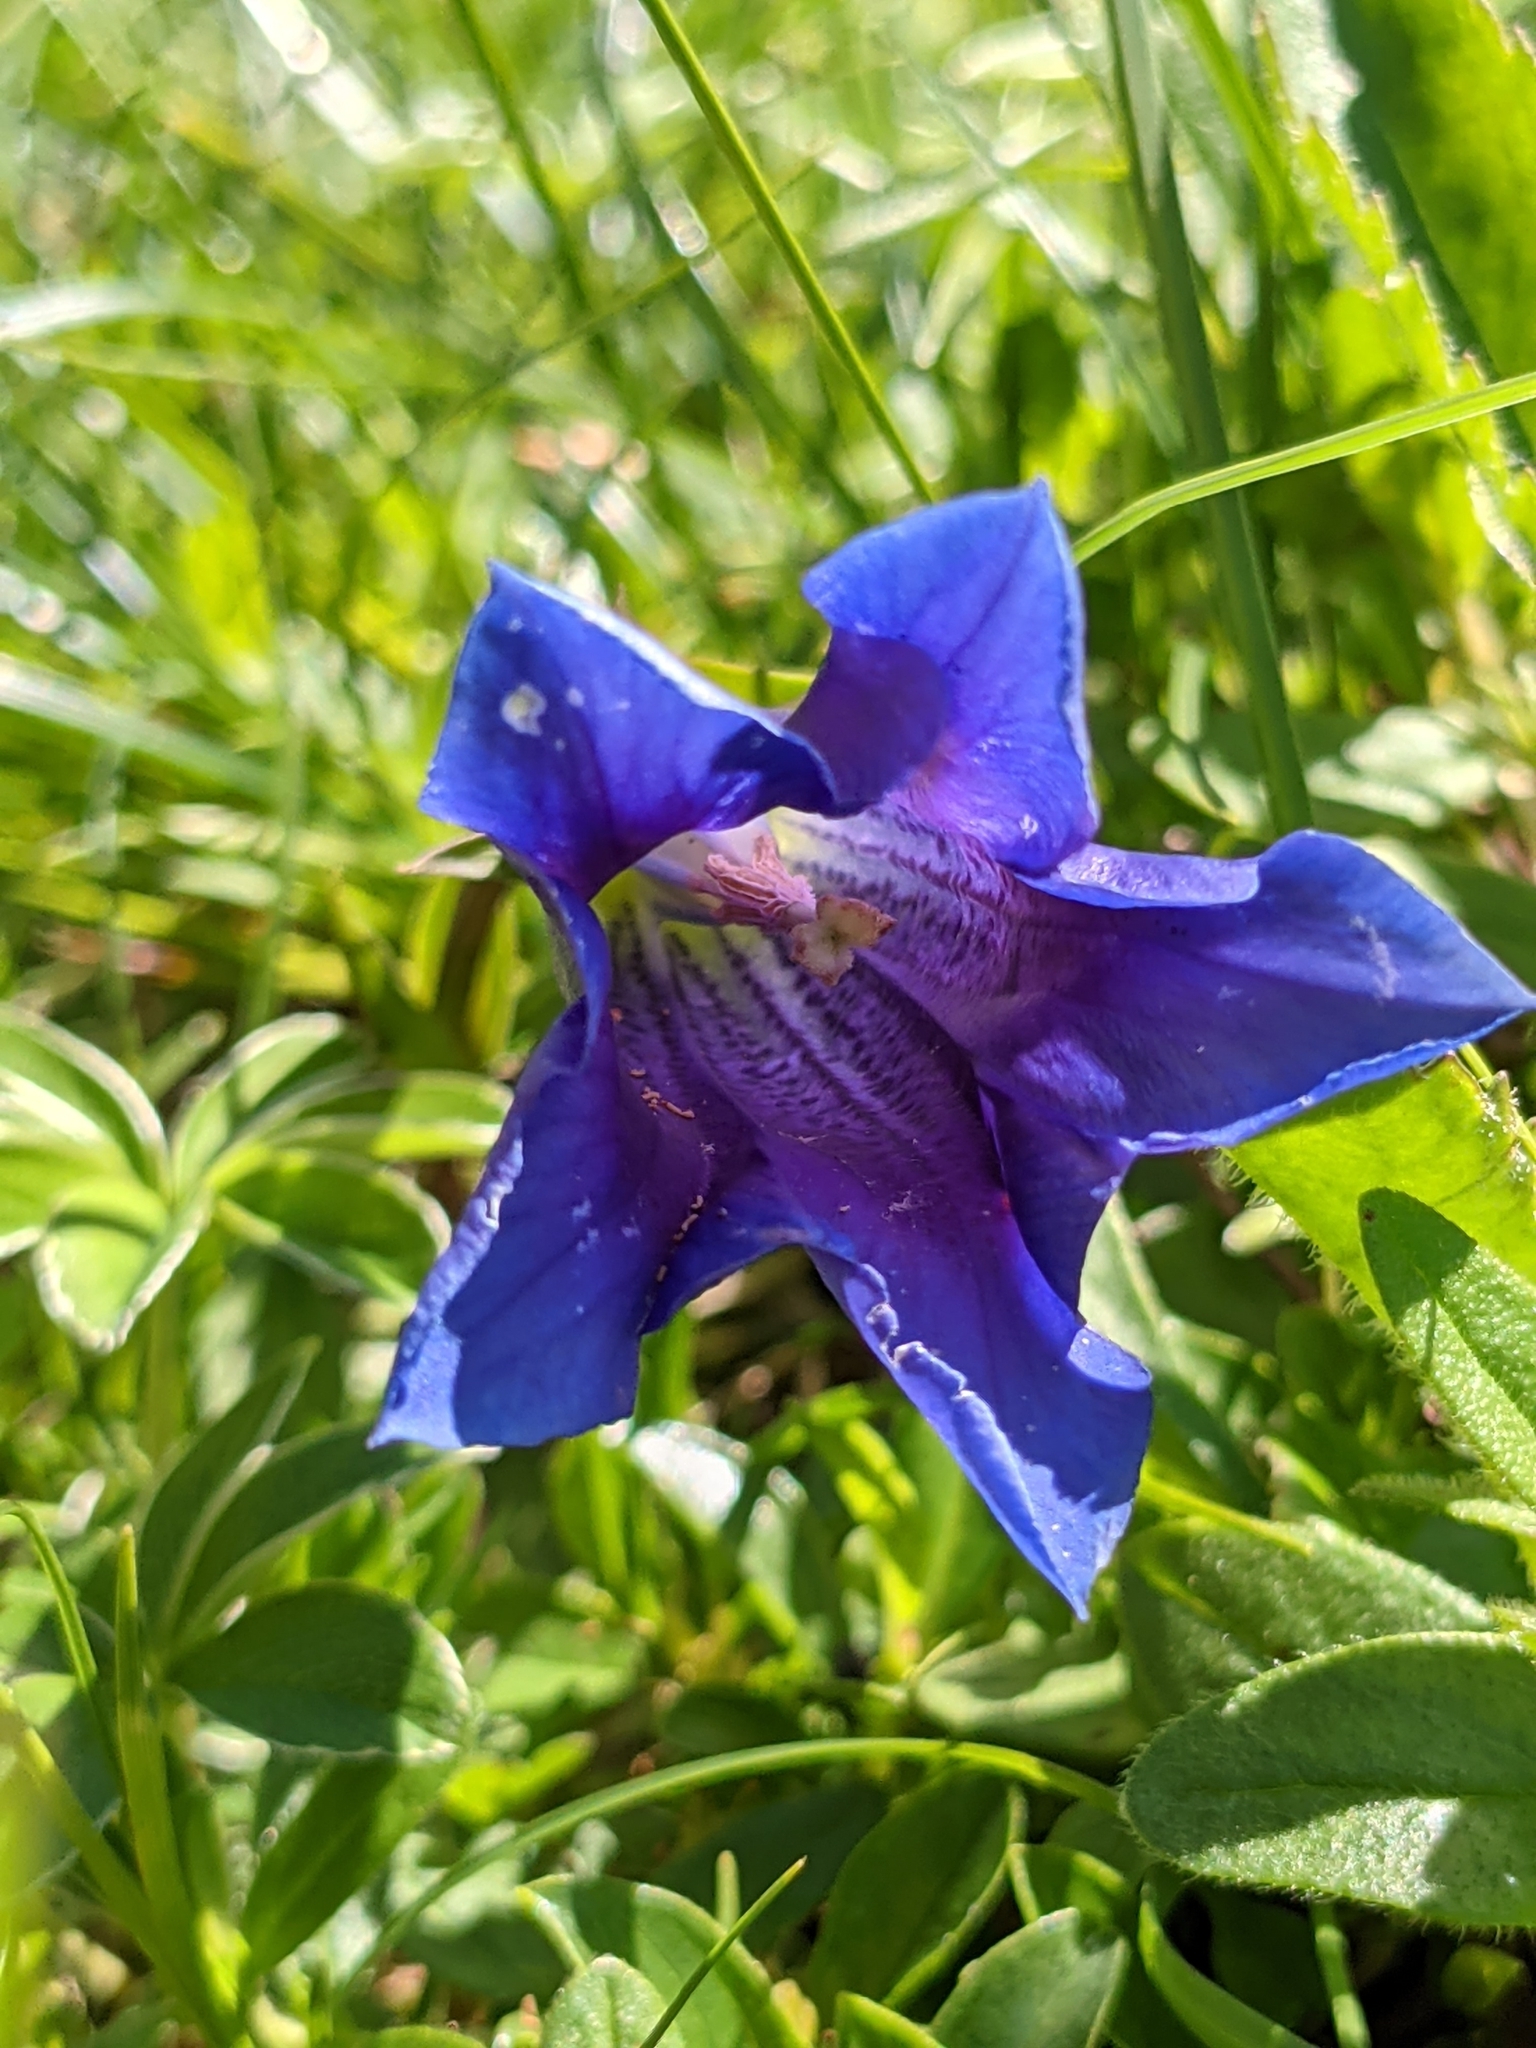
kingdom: Plantae
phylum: Tracheophyta
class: Magnoliopsida
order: Gentianales
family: Gentianaceae
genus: Gentiana
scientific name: Gentiana clusii
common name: Trumpet gentian
